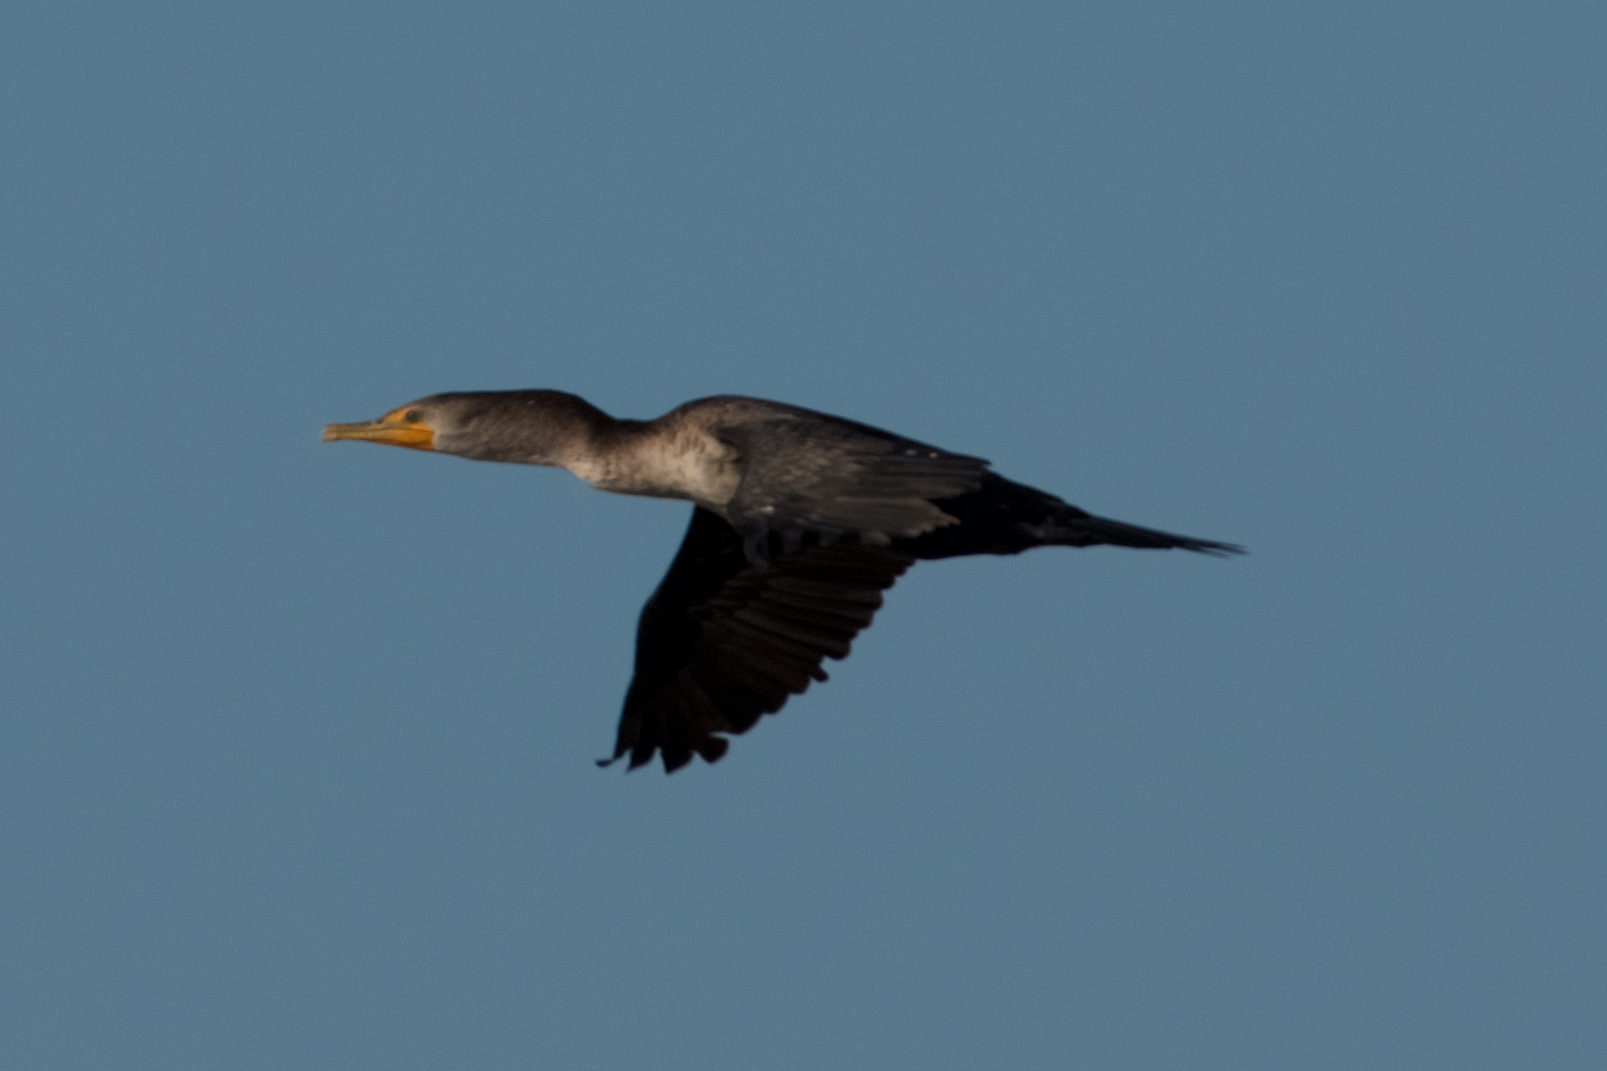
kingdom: Animalia
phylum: Chordata
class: Aves
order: Suliformes
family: Phalacrocoracidae
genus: Phalacrocorax
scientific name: Phalacrocorax auritus
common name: Double-crested cormorant
